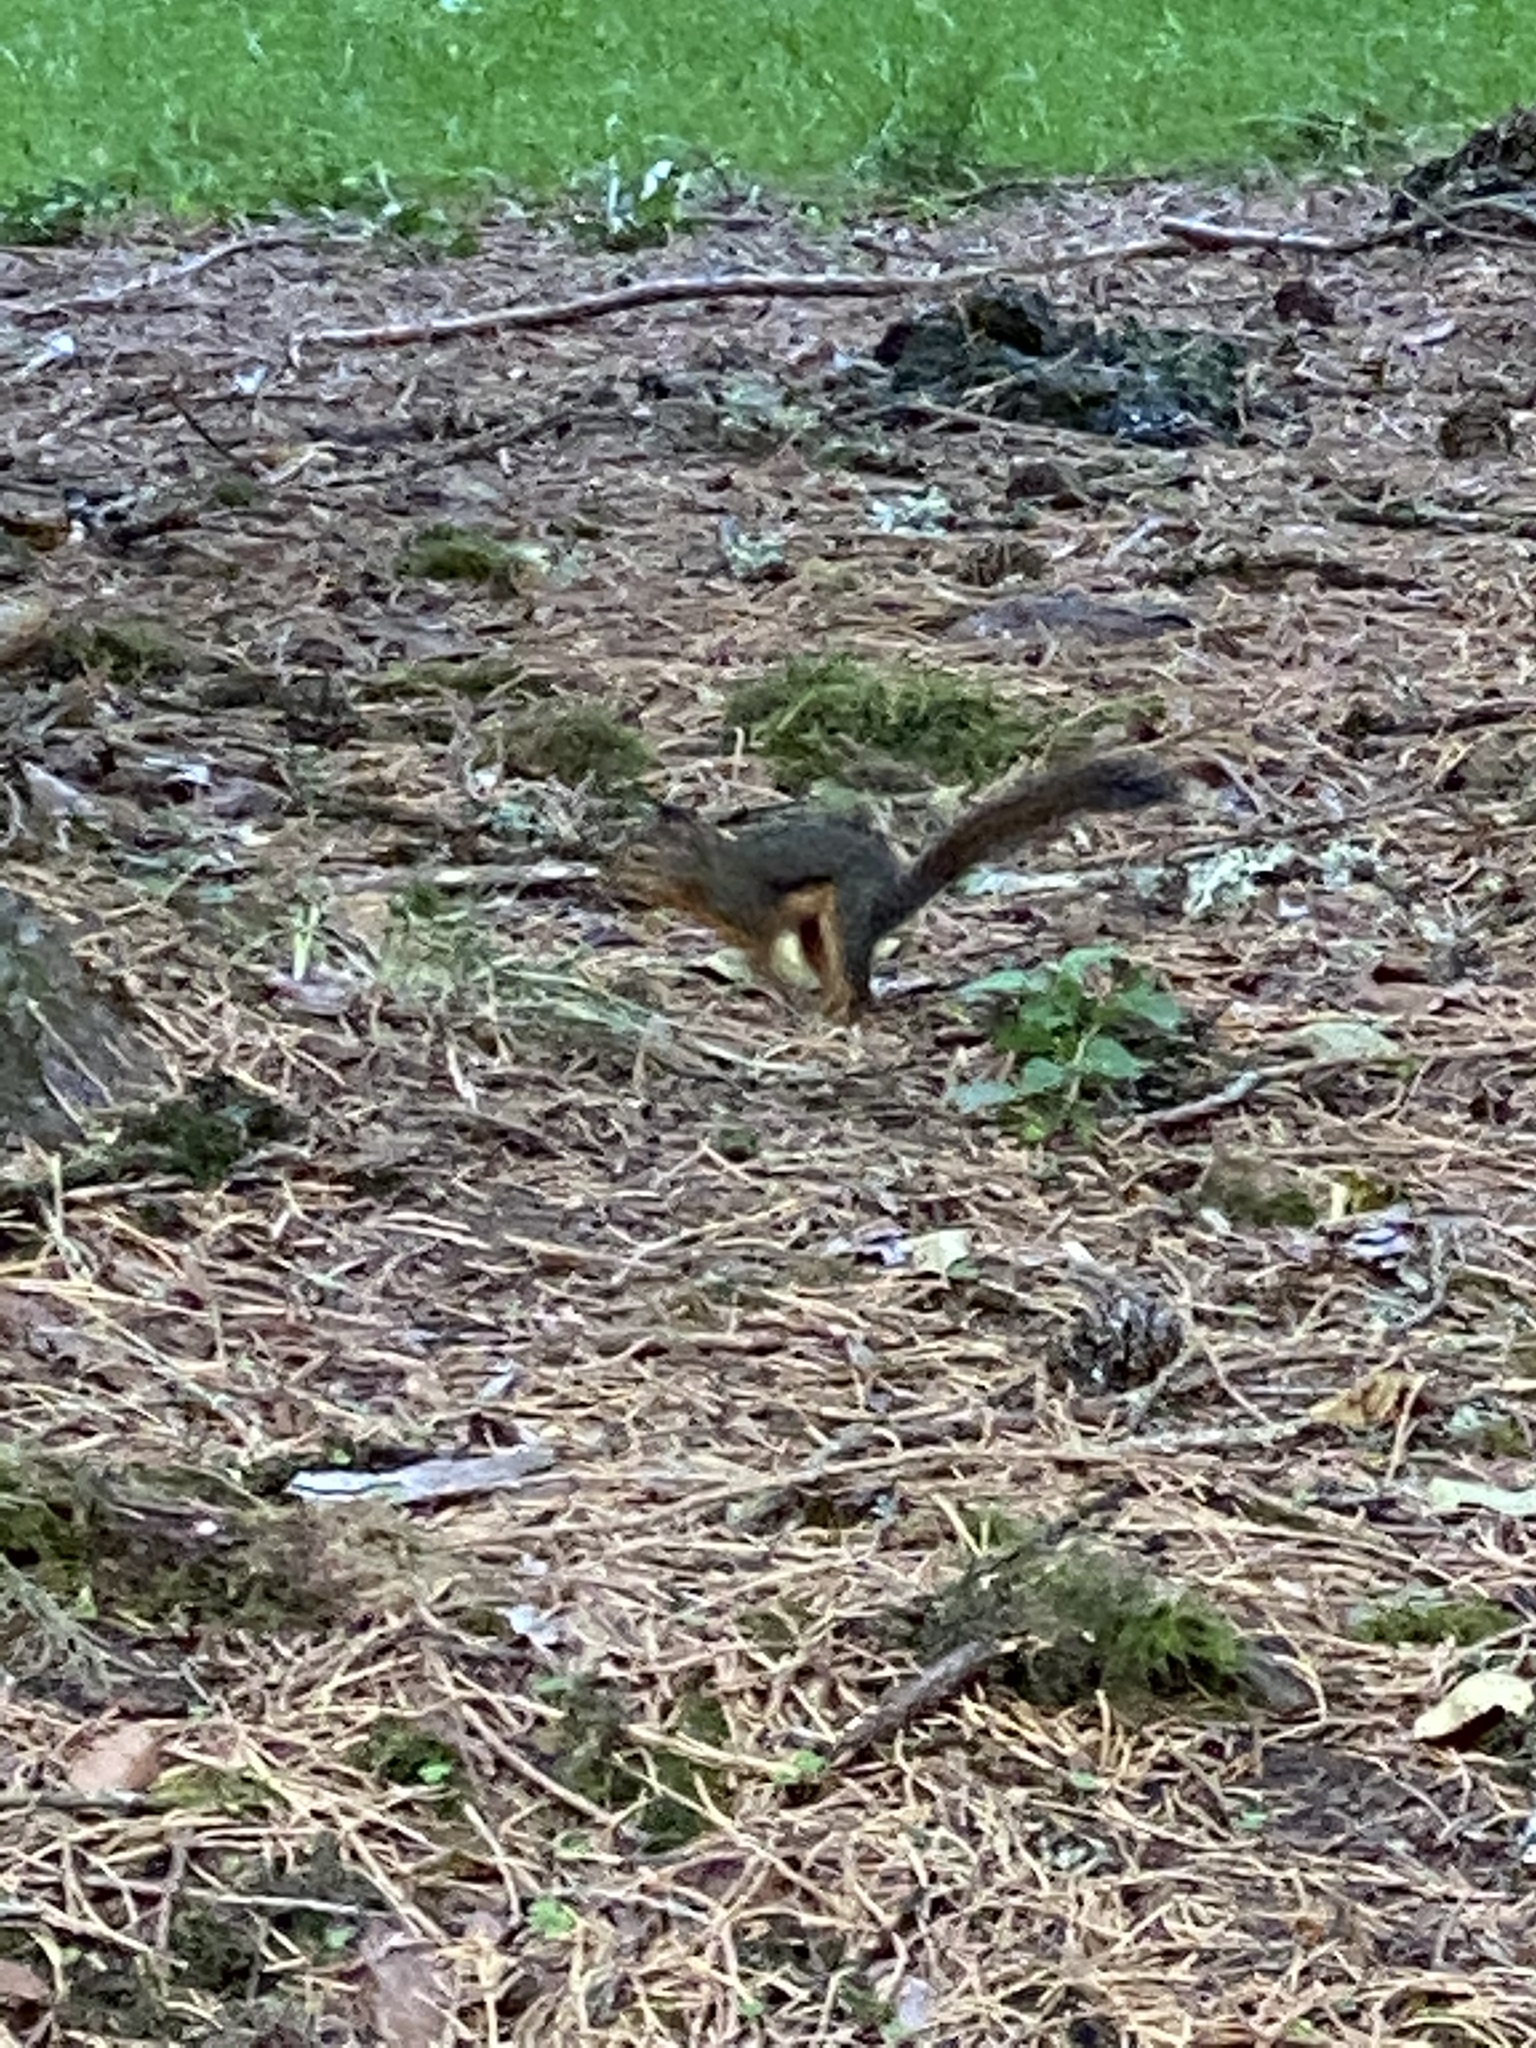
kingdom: Animalia
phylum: Chordata
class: Mammalia
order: Rodentia
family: Sciuridae
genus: Tamiasciurus
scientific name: Tamiasciurus douglasii
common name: Douglas's squirrel
